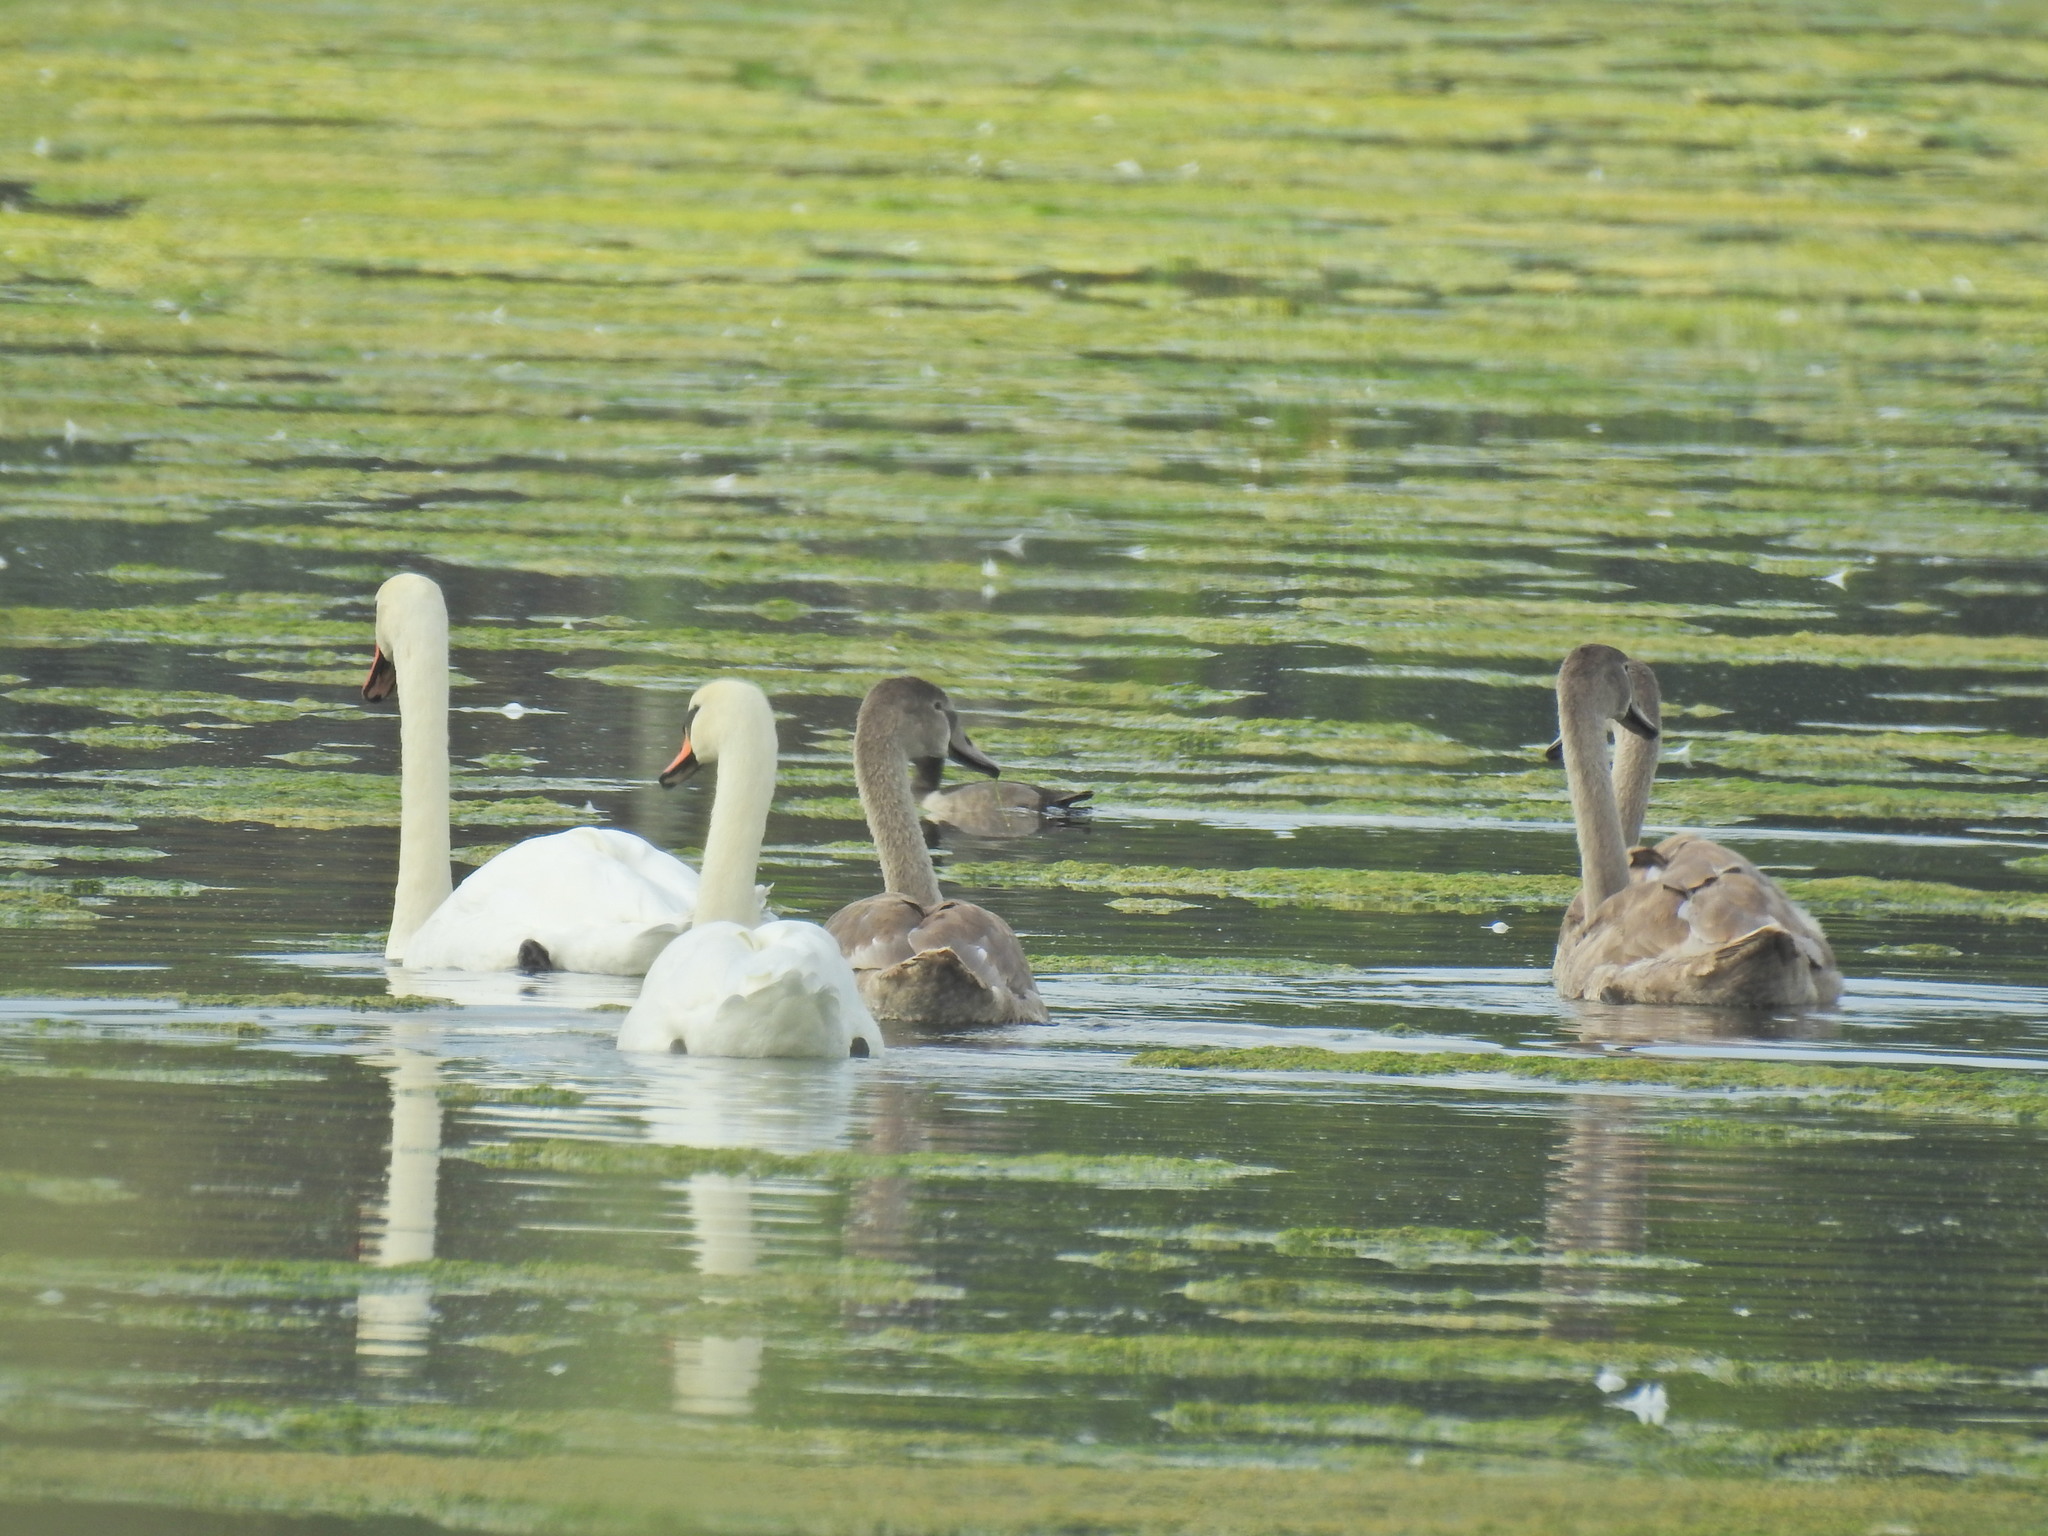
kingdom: Animalia
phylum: Chordata
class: Aves
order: Anseriformes
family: Anatidae
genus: Cygnus
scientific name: Cygnus olor
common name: Mute swan
